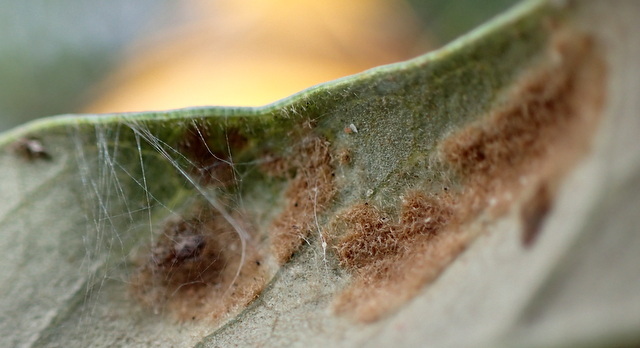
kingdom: Animalia
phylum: Arthropoda
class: Arachnida
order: Trombidiformes
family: Eriophyidae
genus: Aceria
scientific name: Aceria quercina
